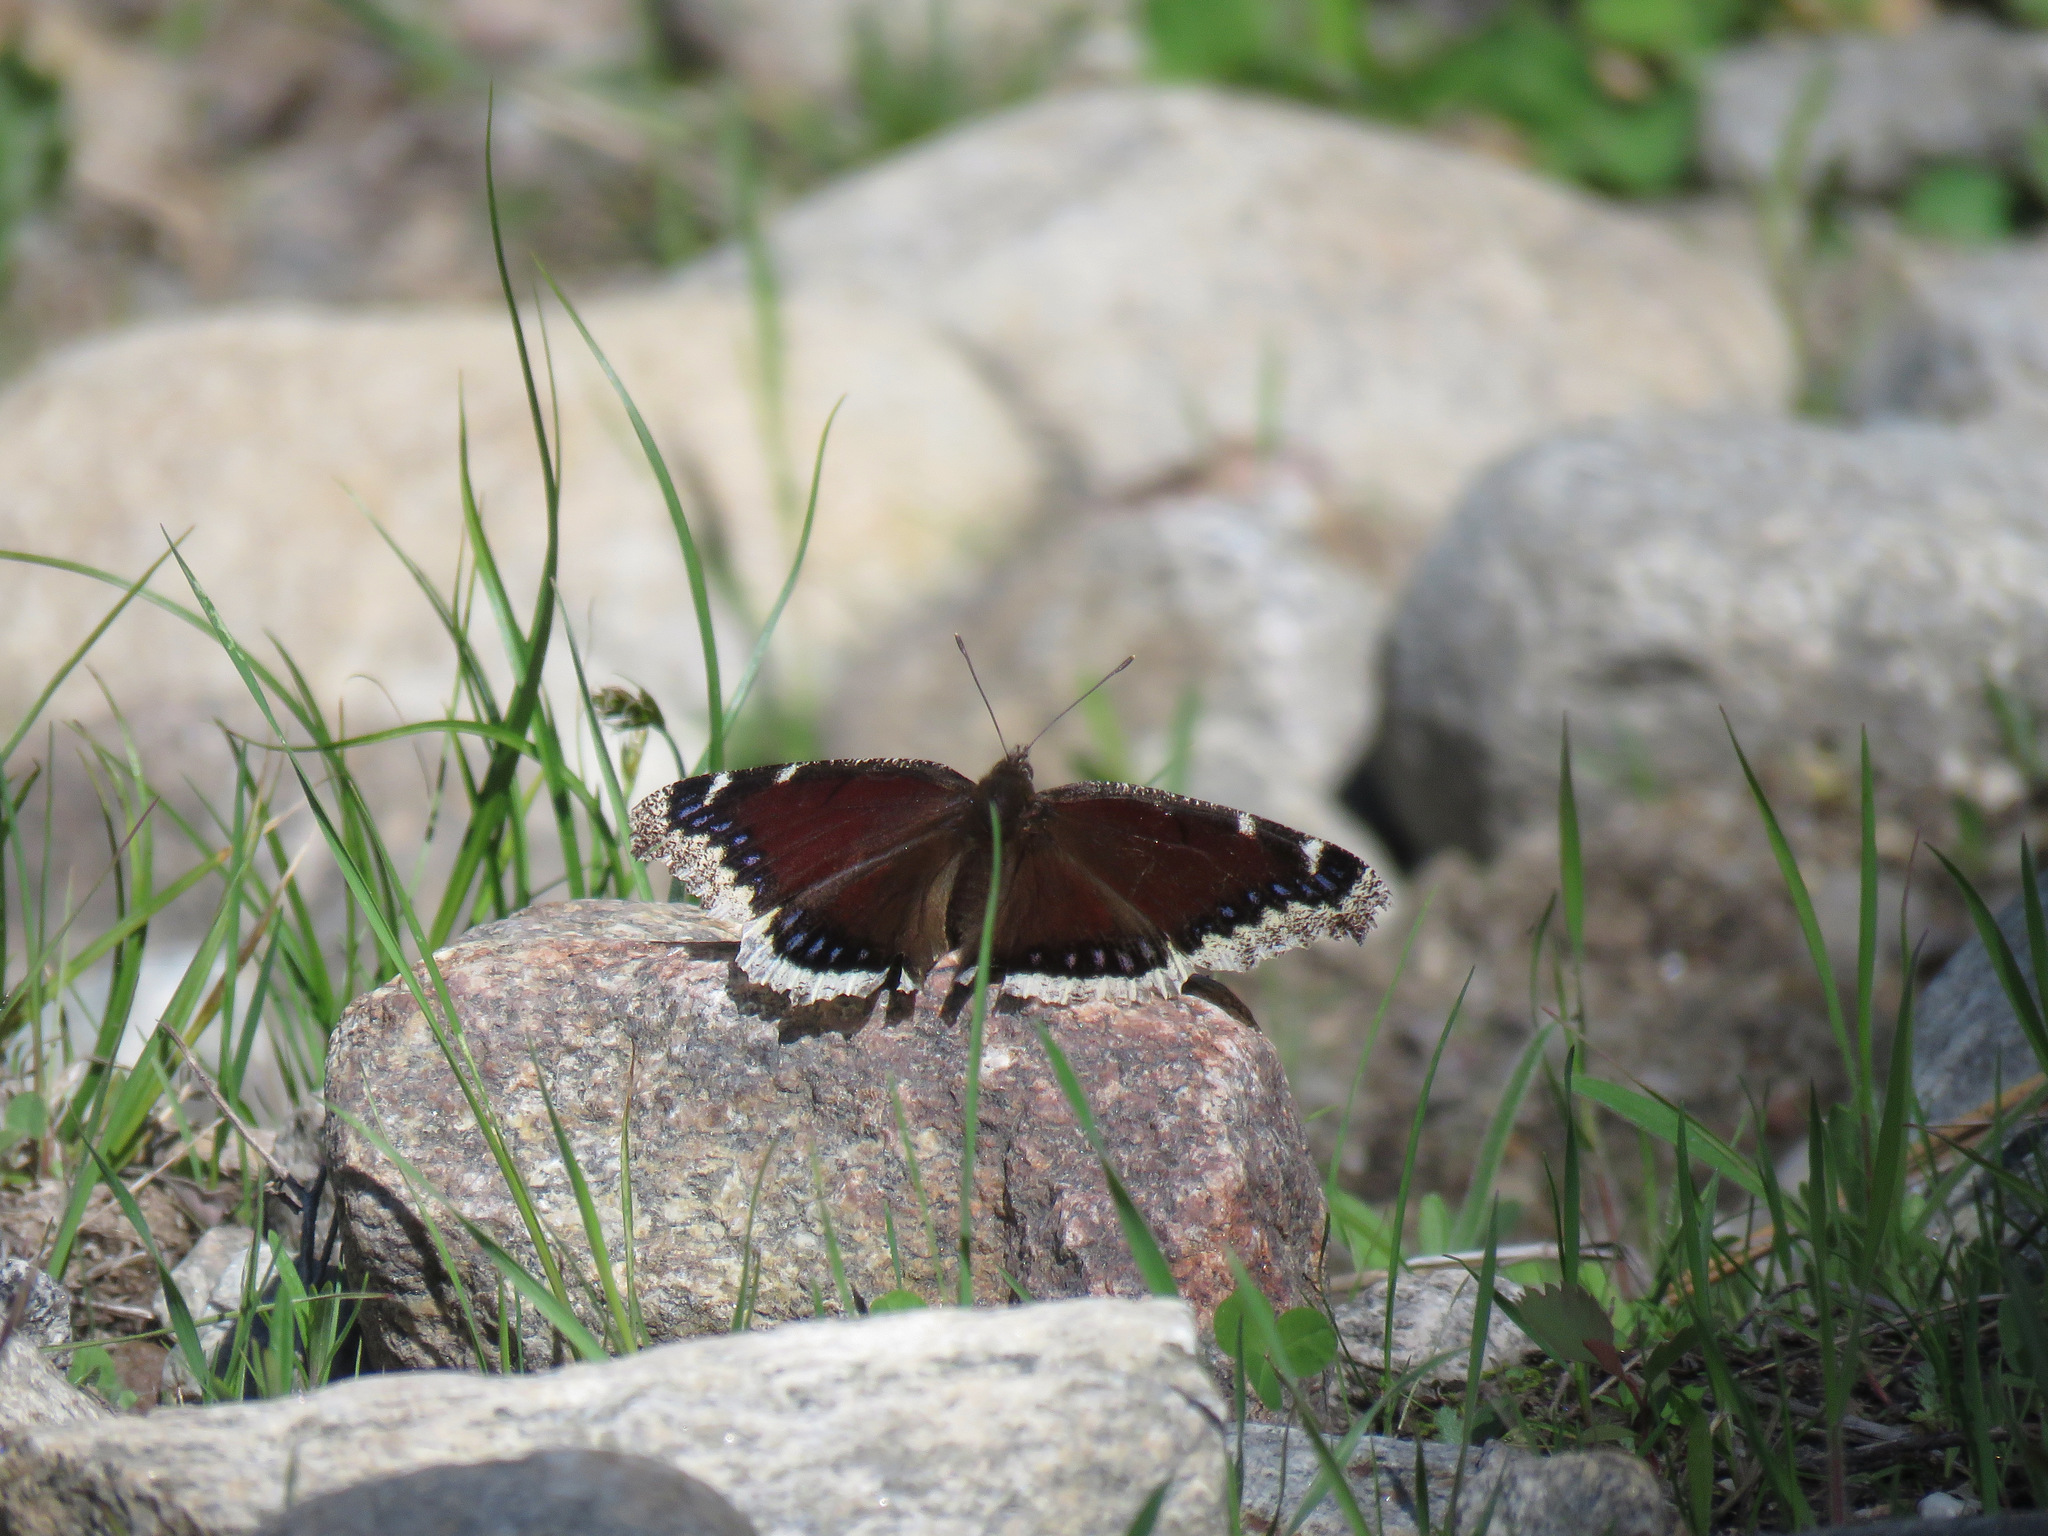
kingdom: Animalia
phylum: Arthropoda
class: Insecta
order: Lepidoptera
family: Nymphalidae
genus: Nymphalis
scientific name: Nymphalis antiopa
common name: Camberwell beauty
